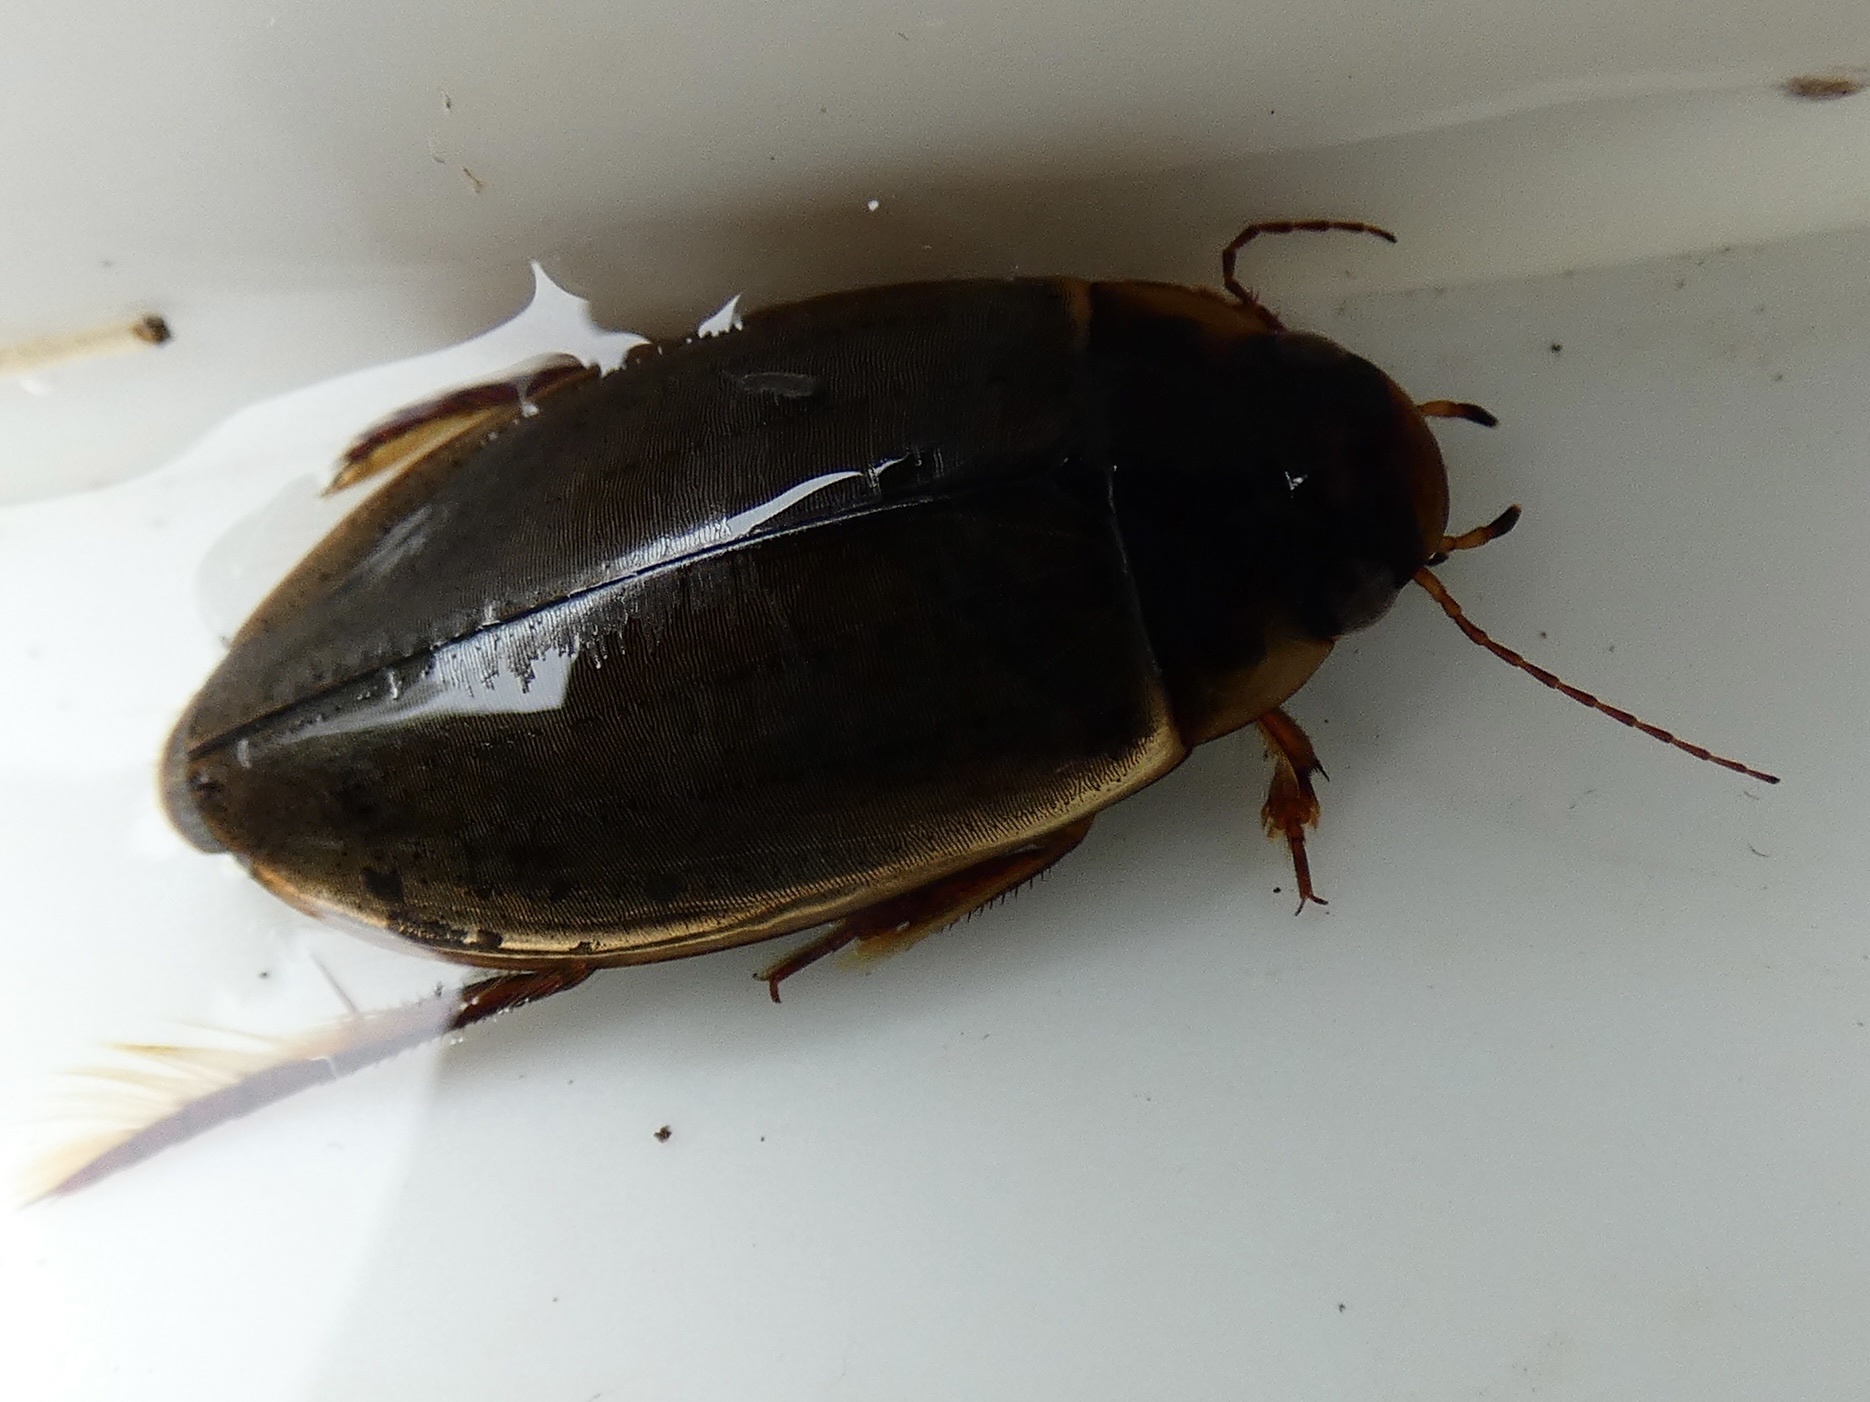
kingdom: Animalia
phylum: Arthropoda
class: Insecta
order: Coleoptera
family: Dytiscidae
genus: Colymbetes
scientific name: Colymbetes fuscus
